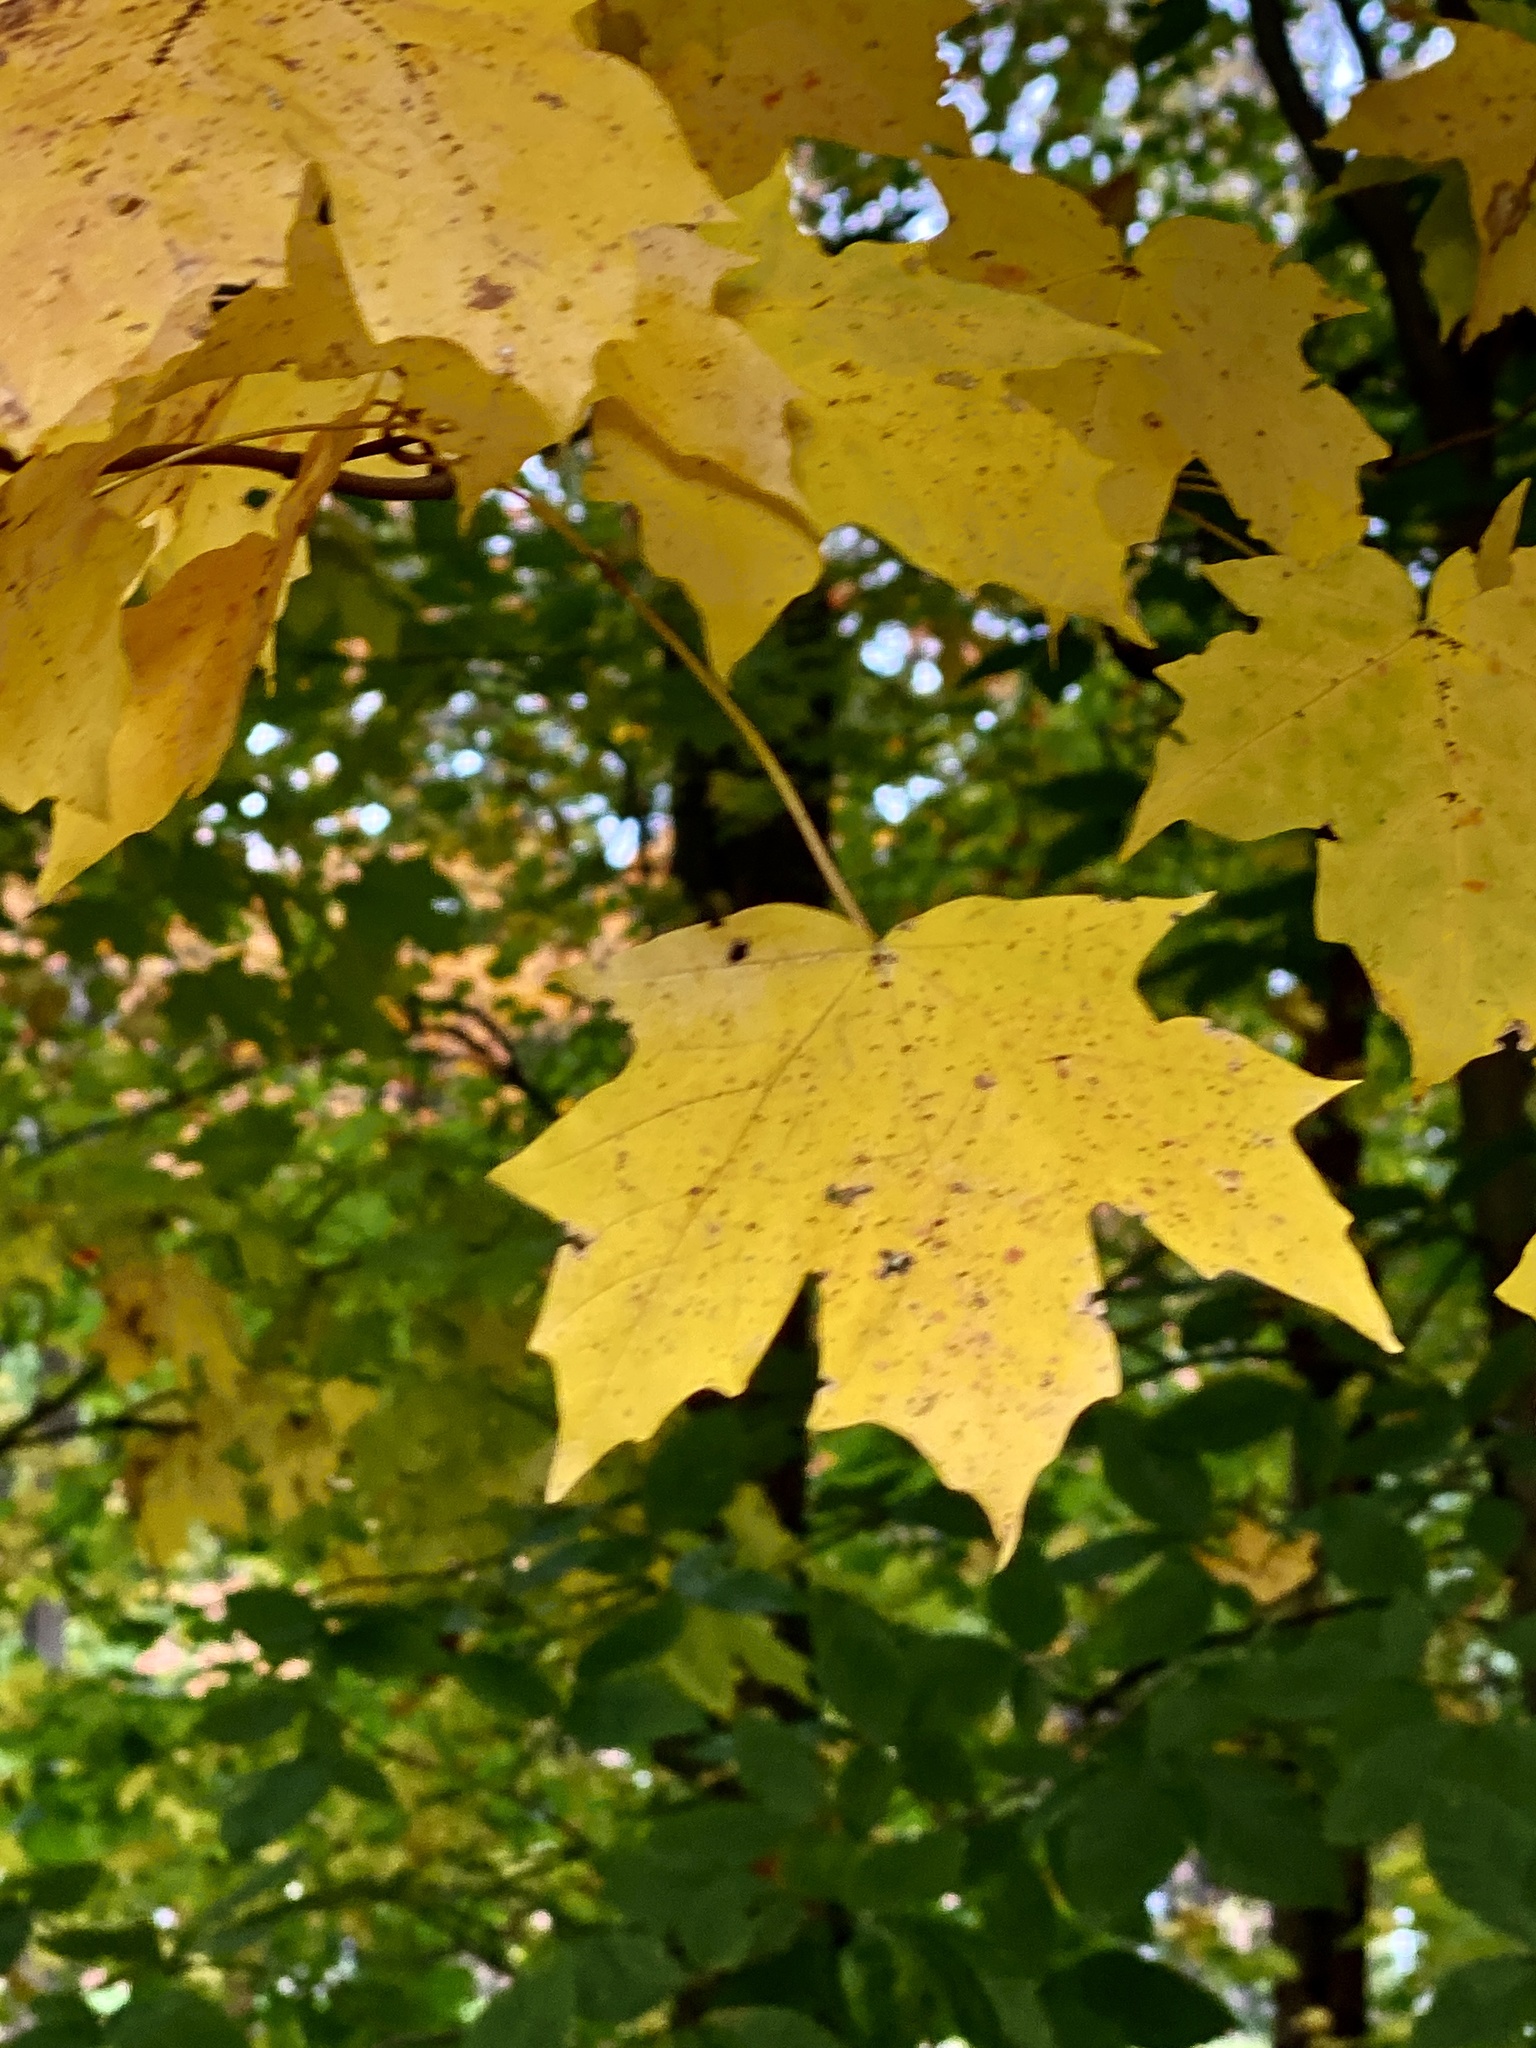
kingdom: Plantae
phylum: Tracheophyta
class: Magnoliopsida
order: Sapindales
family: Sapindaceae
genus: Acer
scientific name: Acer saccharum
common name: Sugar maple
